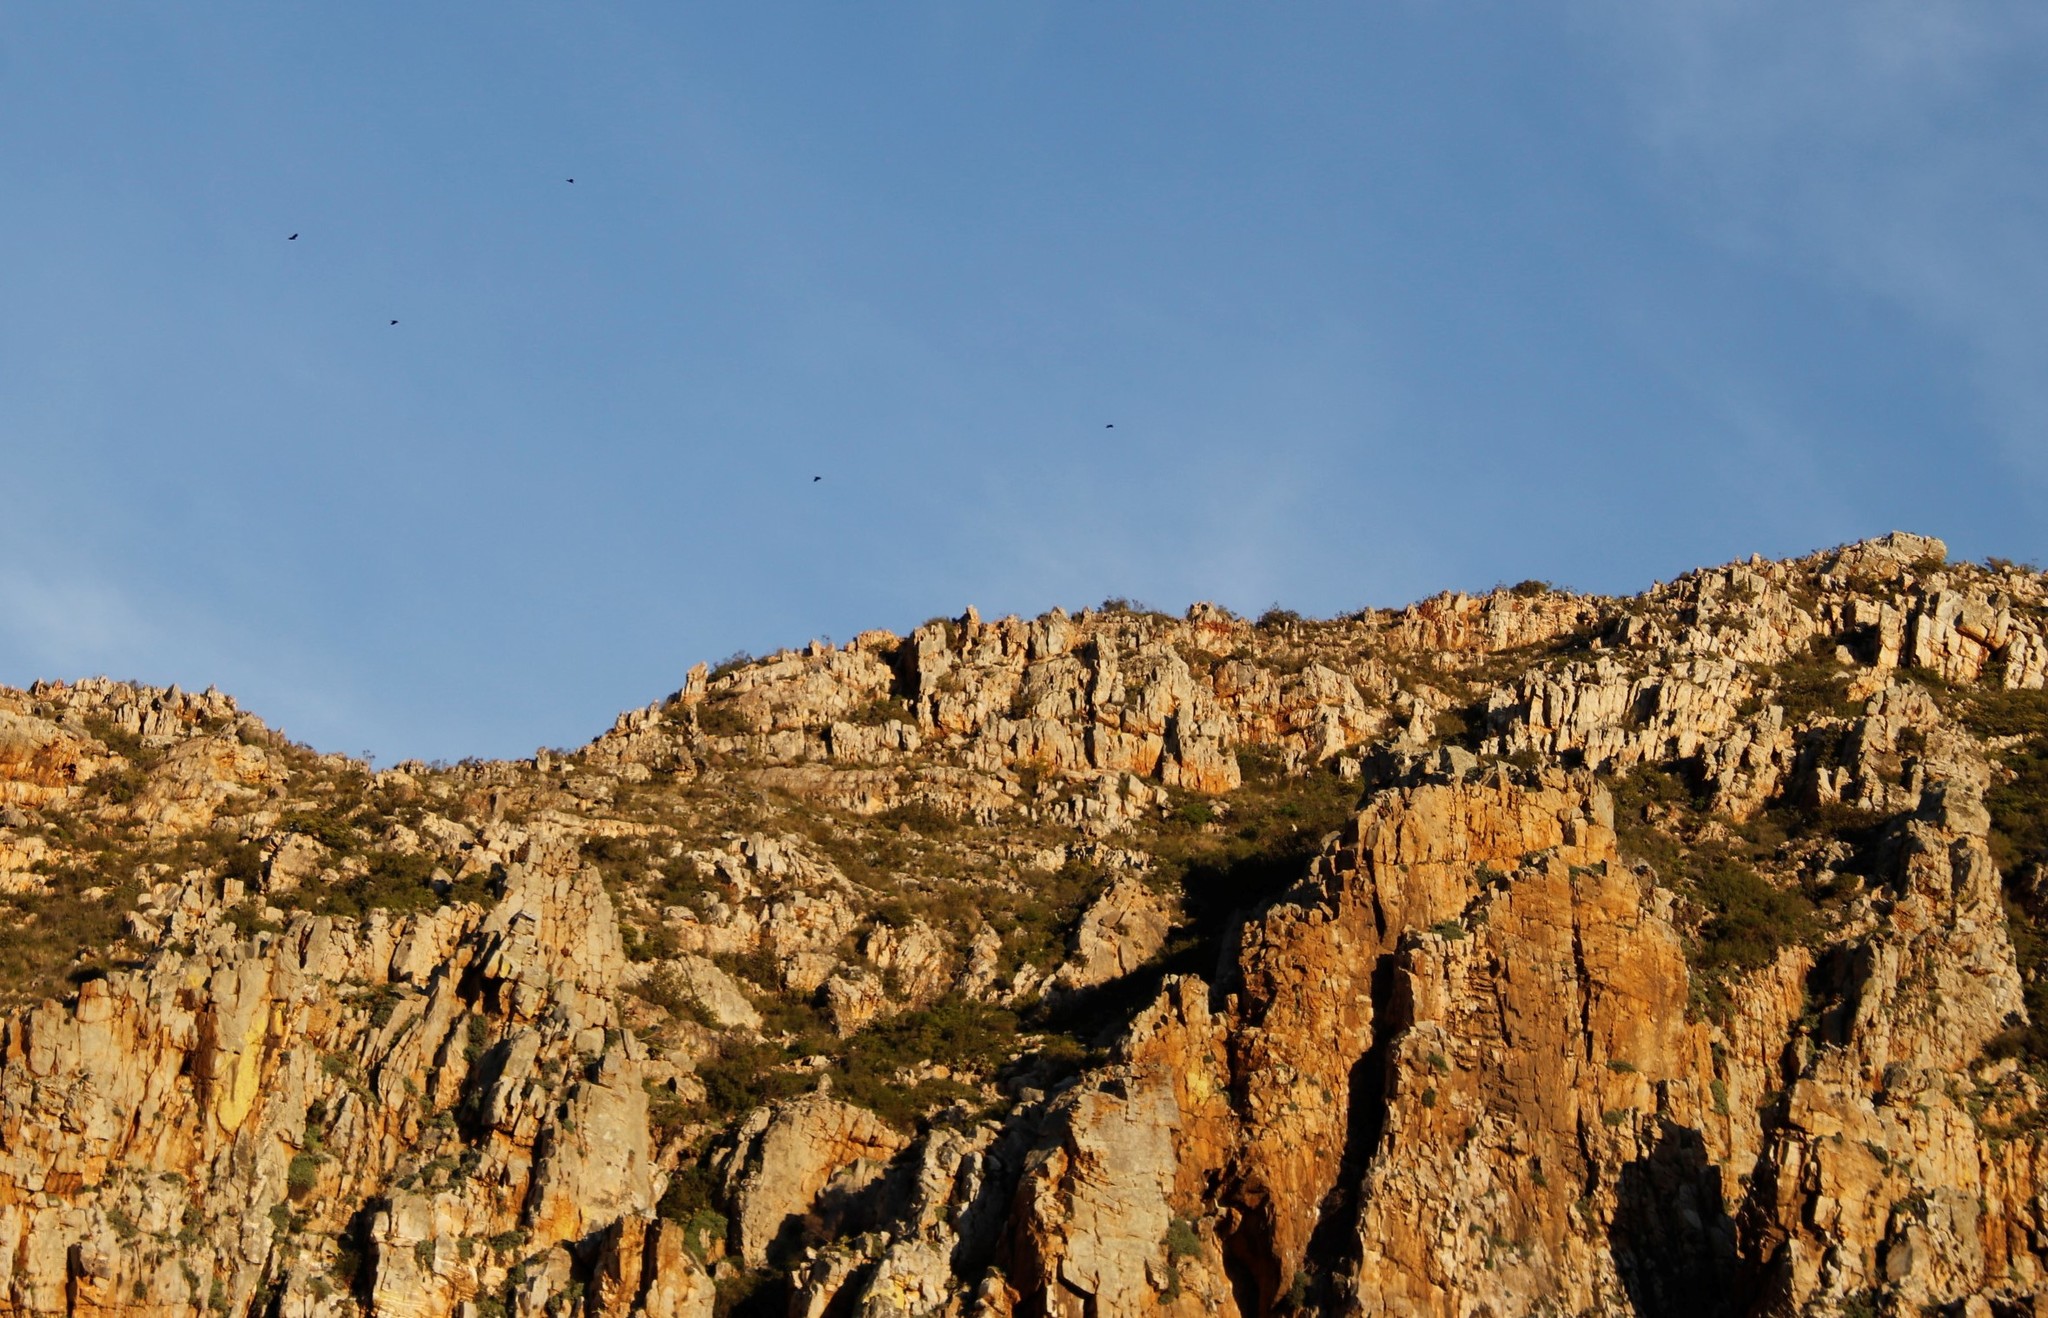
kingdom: Animalia
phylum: Chordata
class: Aves
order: Passeriformes
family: Corvidae
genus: Corvus
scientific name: Corvus albus
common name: Pied crow
